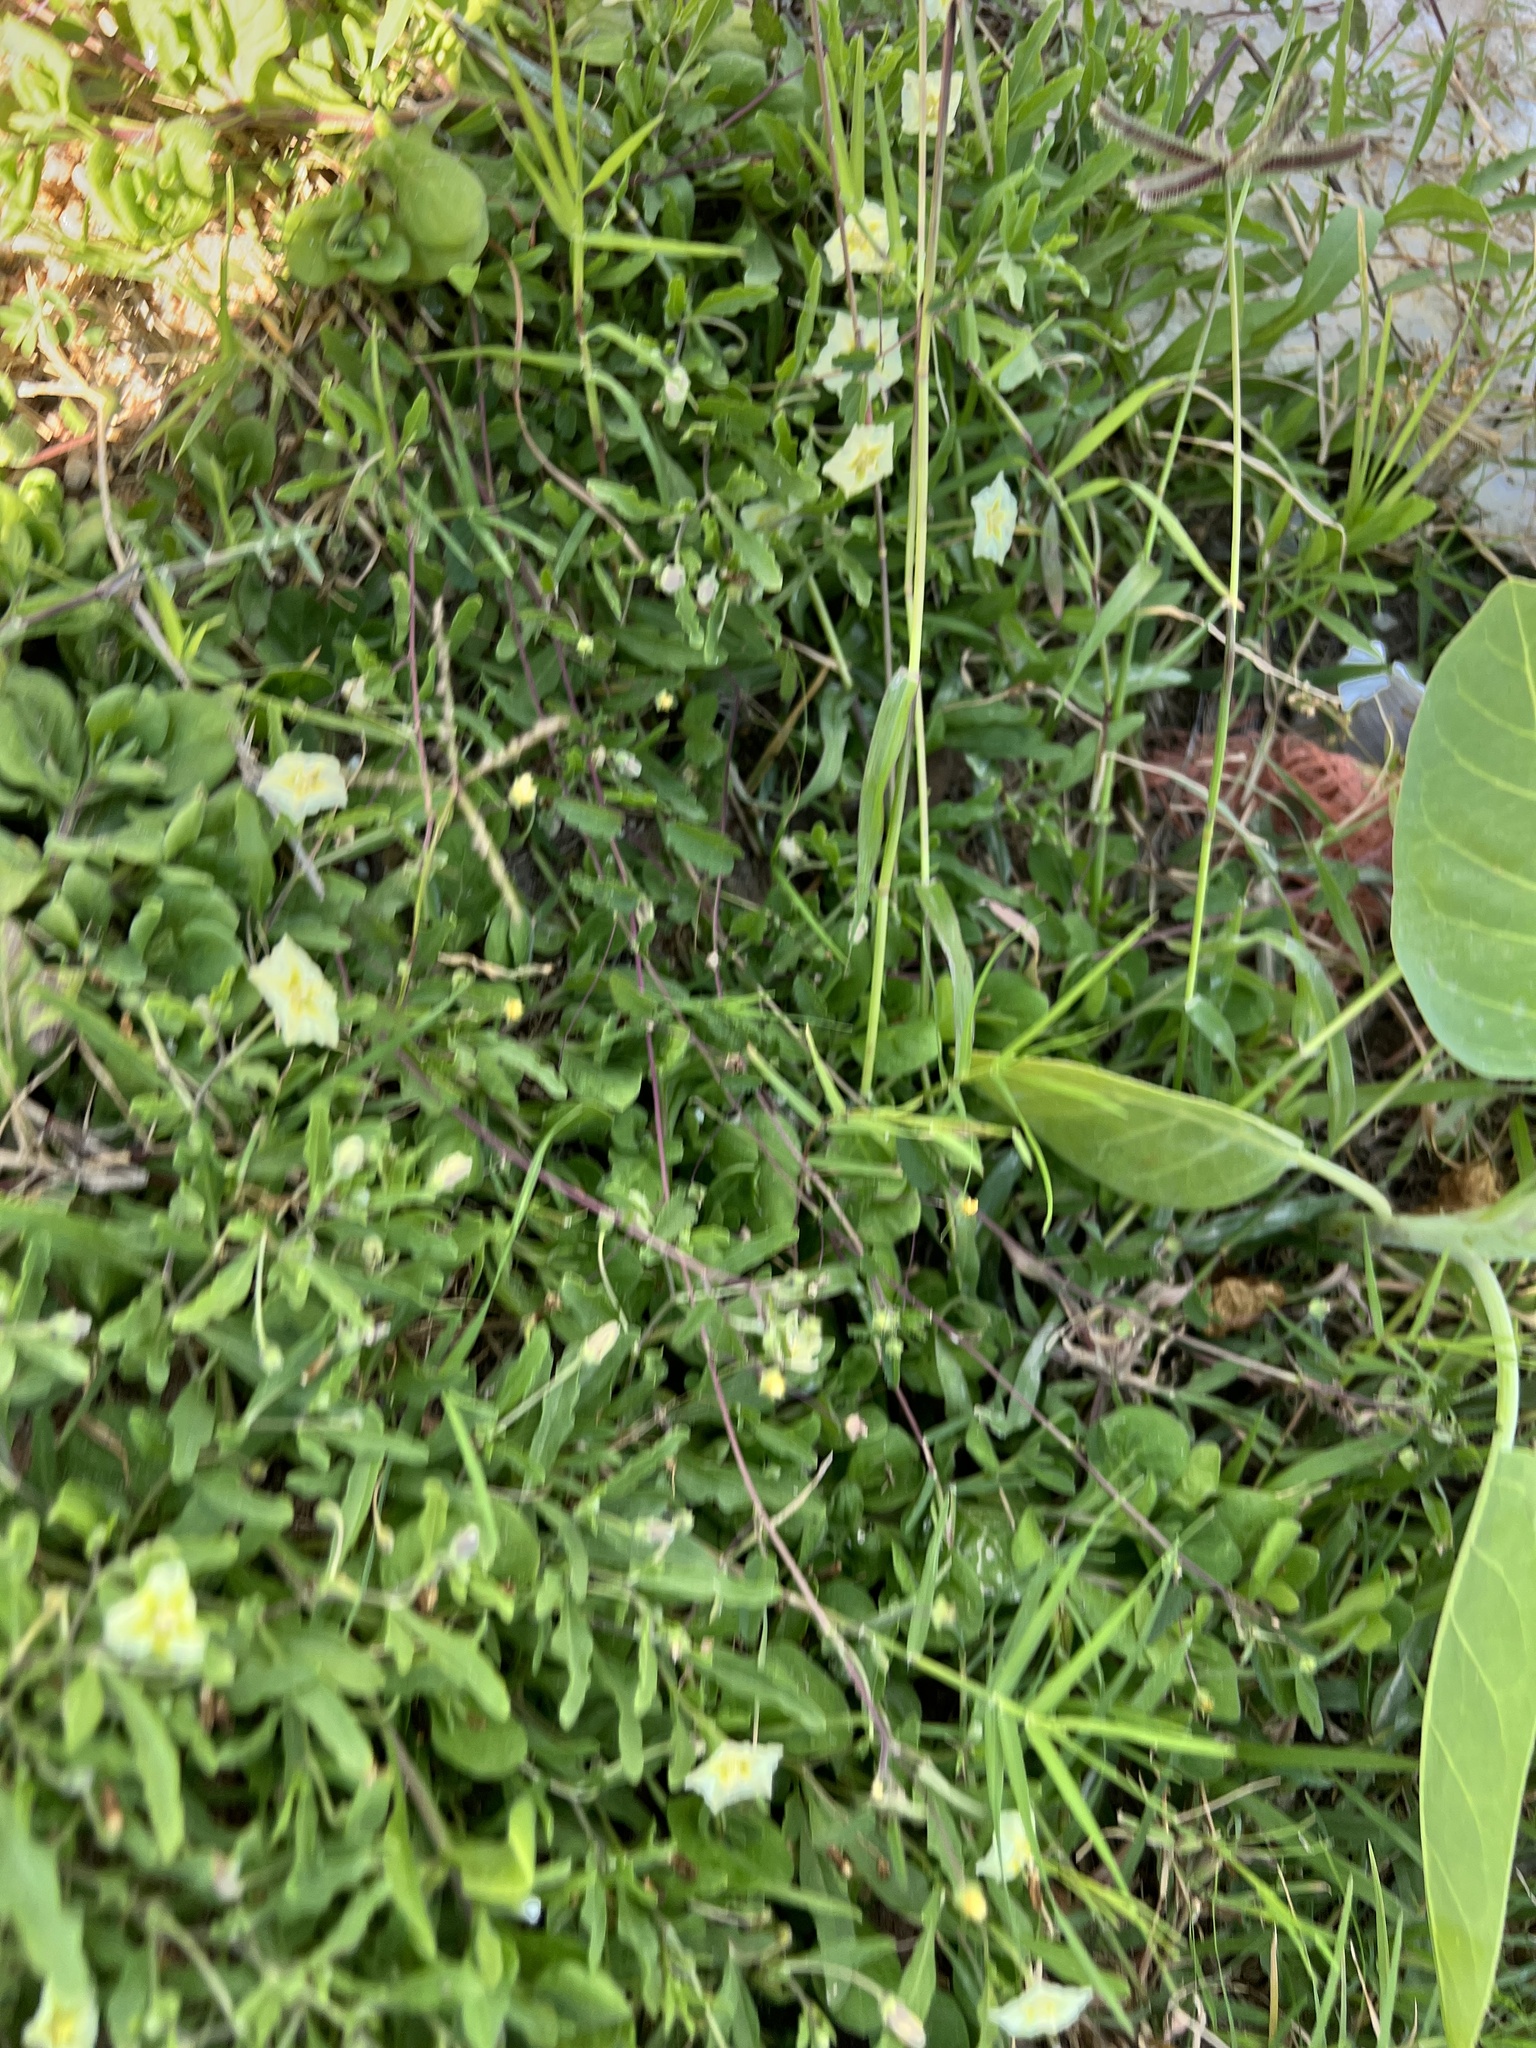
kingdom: Plantae
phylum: Tracheophyta
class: Liliopsida
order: Poales
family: Poaceae
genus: Dactyloctenium
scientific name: Dactyloctenium aegyptium
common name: Egyptian grass
